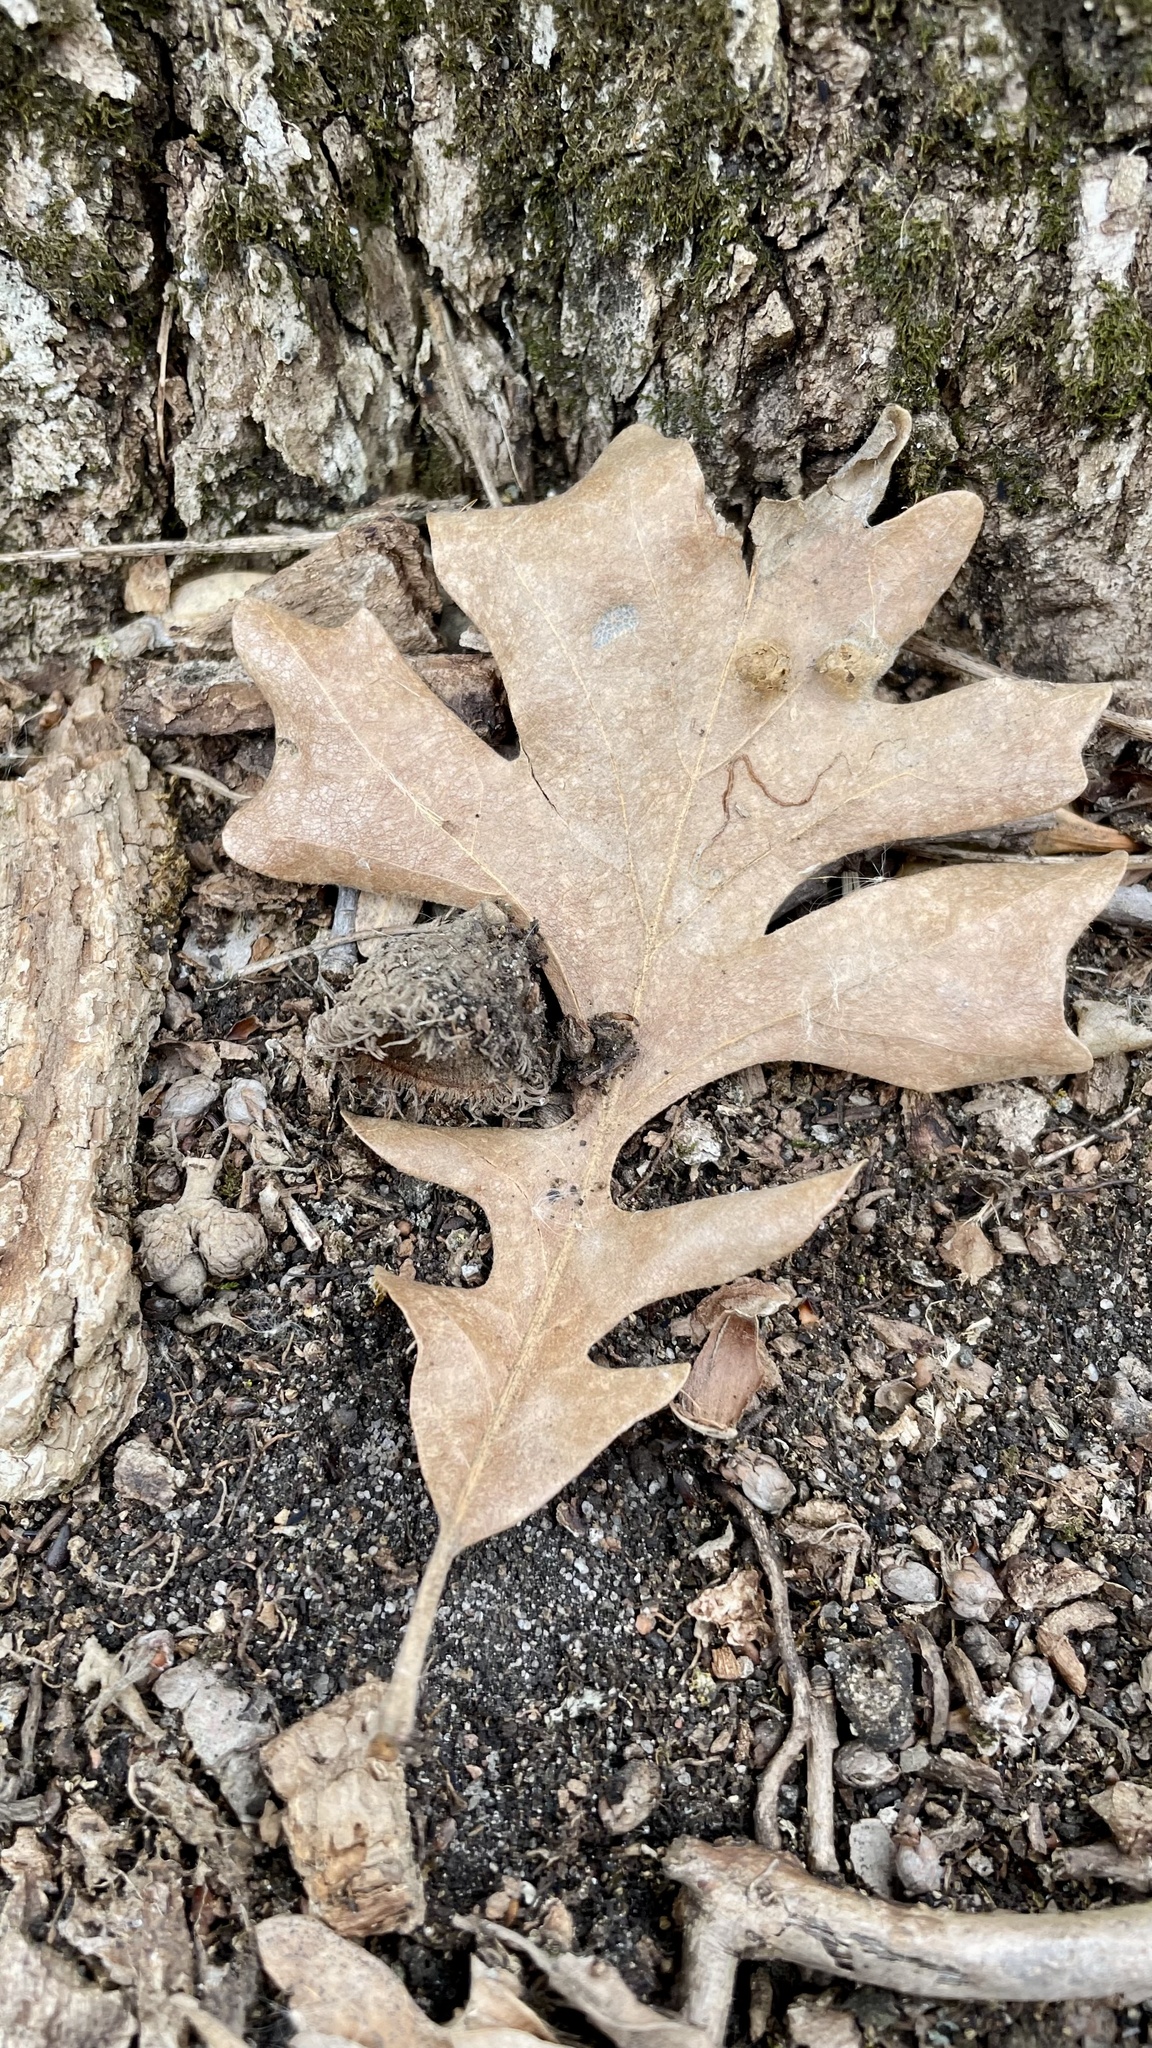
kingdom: Plantae
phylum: Tracheophyta
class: Magnoliopsida
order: Fagales
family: Fagaceae
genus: Quercus
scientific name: Quercus macrocarpa
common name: Bur oak
